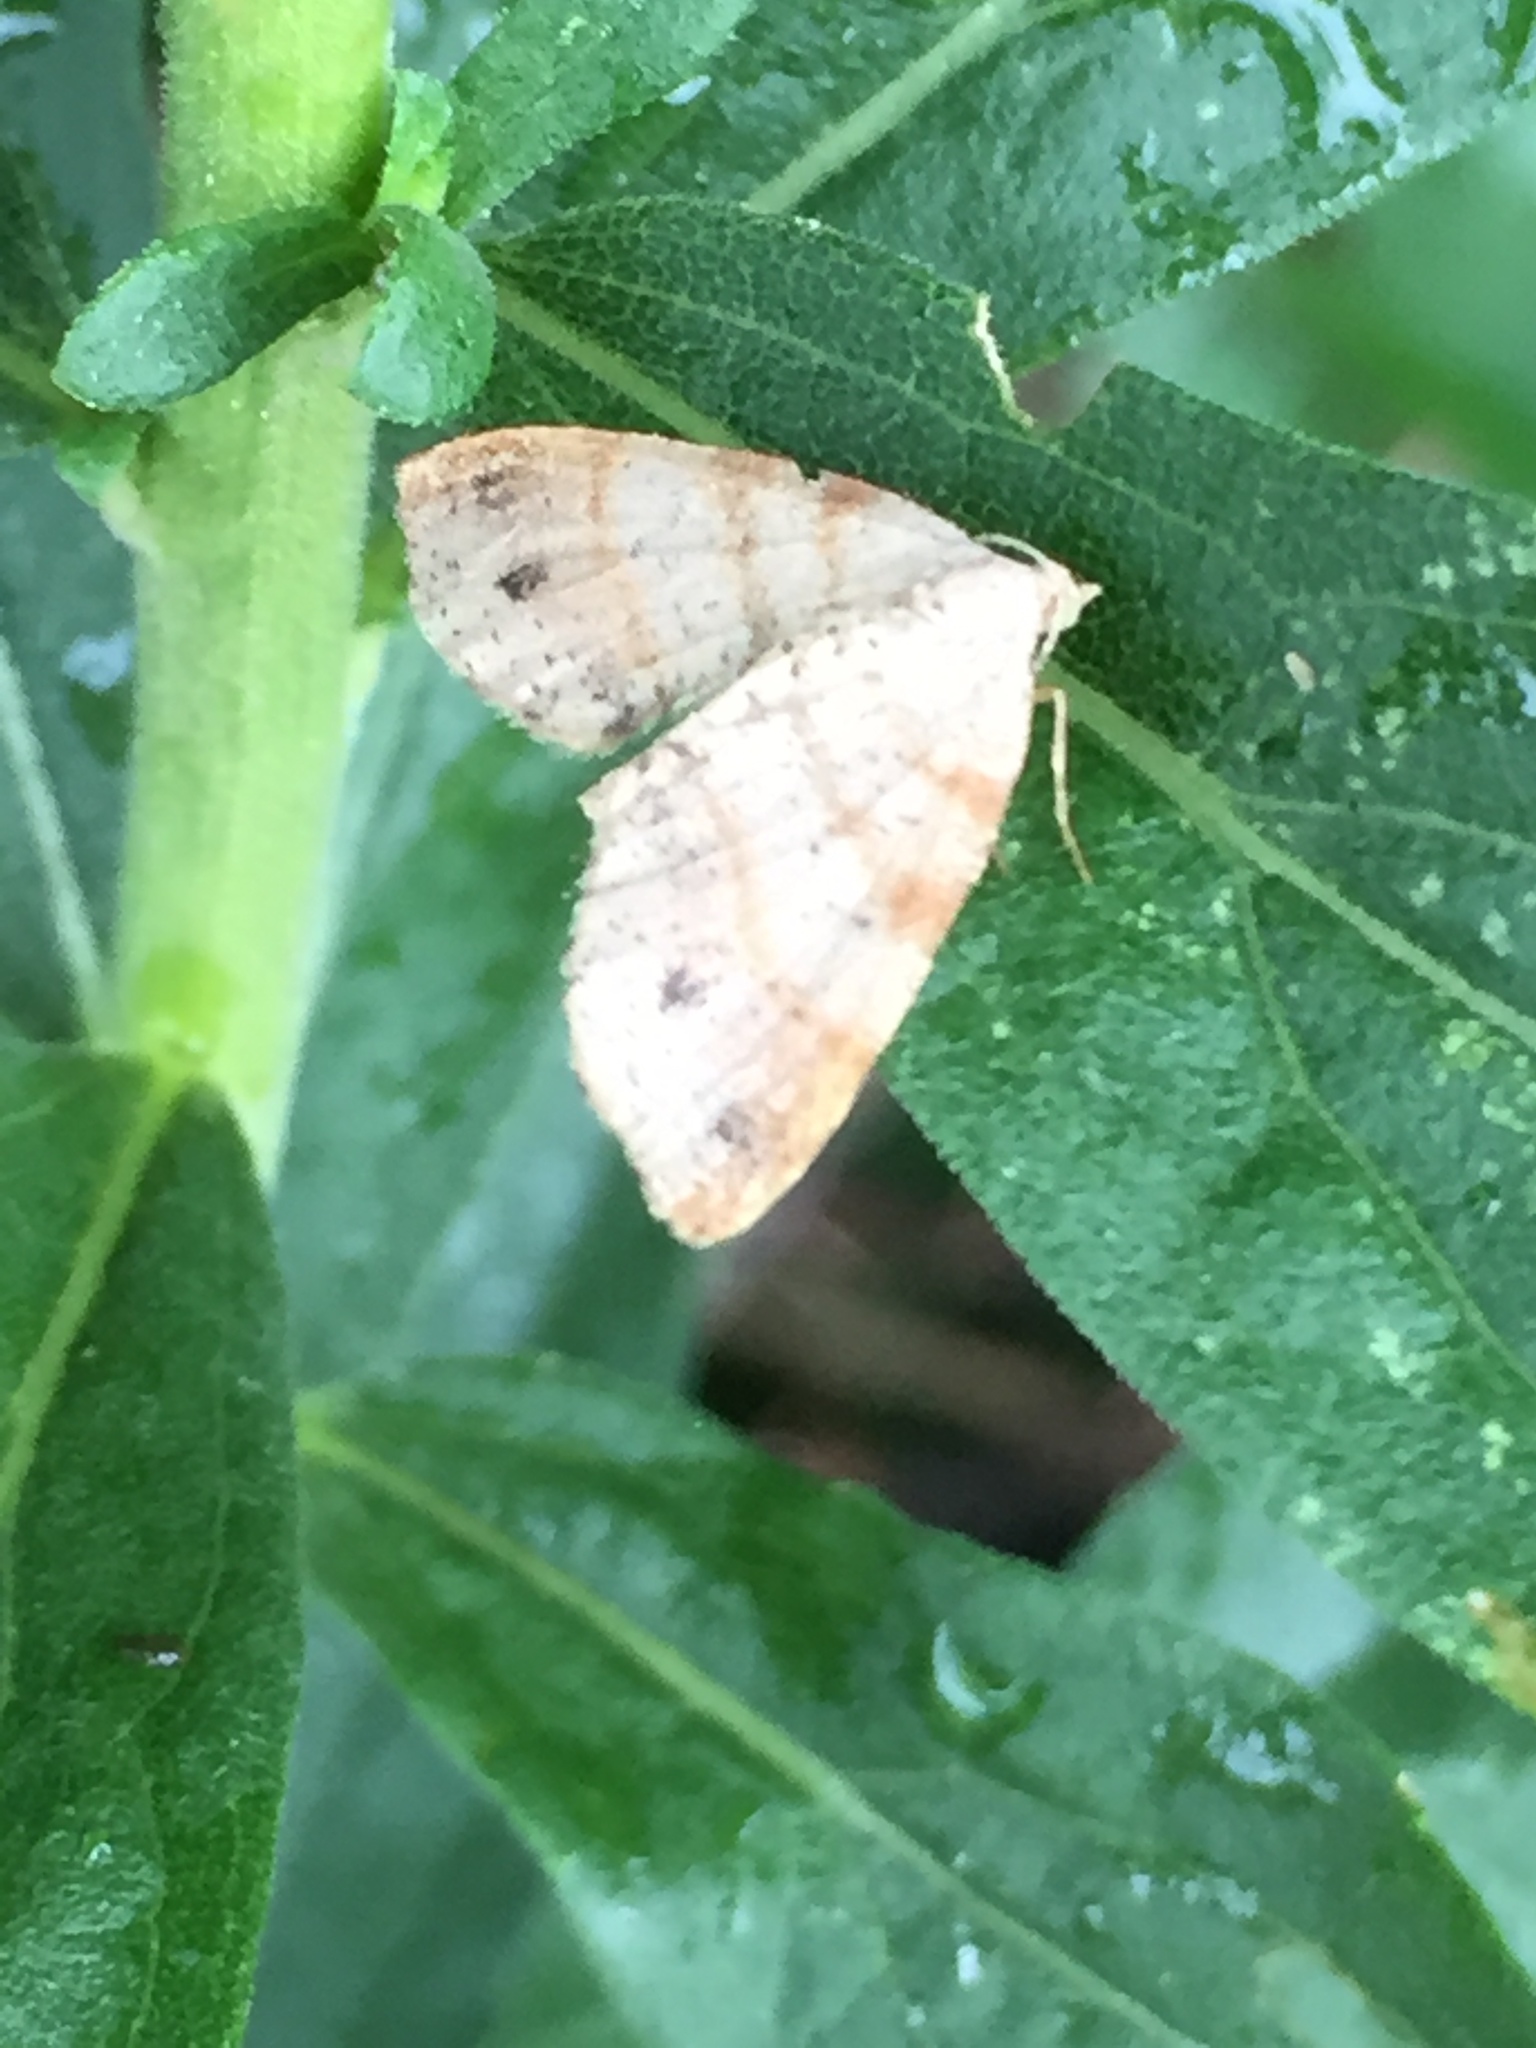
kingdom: Animalia
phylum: Arthropoda
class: Insecta
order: Lepidoptera
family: Geometridae
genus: Mellilla
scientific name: Mellilla xanthometata
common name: Orange wing moth
